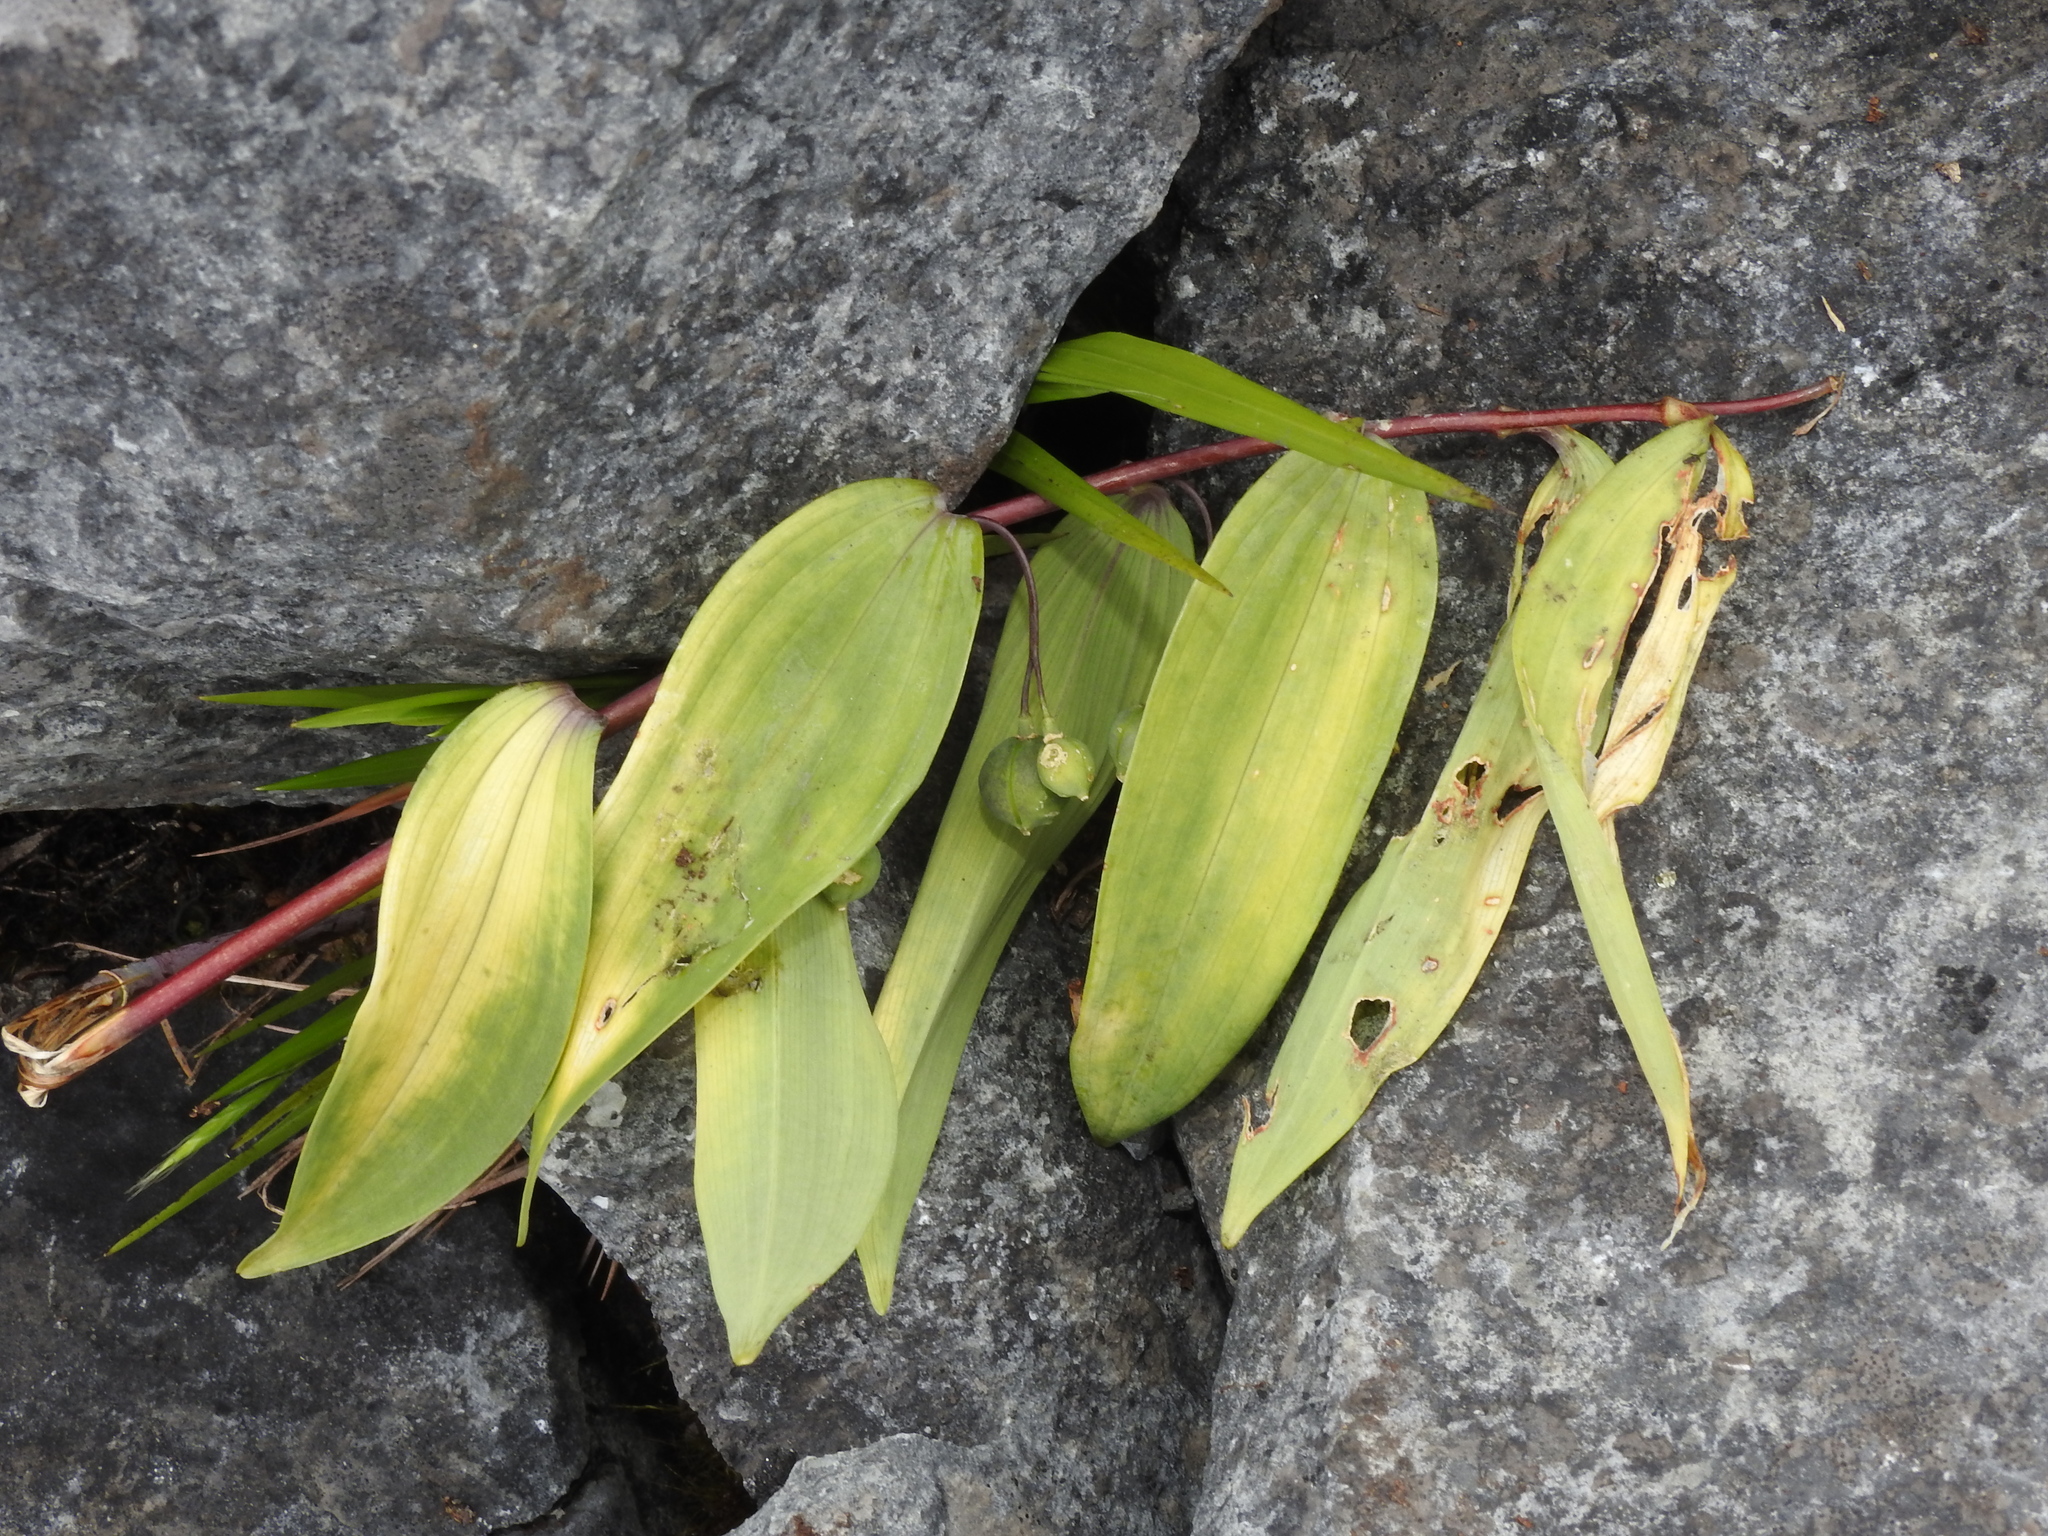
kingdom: Plantae
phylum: Tracheophyta
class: Liliopsida
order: Asparagales
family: Asparagaceae
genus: Polygonatum
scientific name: Polygonatum arisanense
